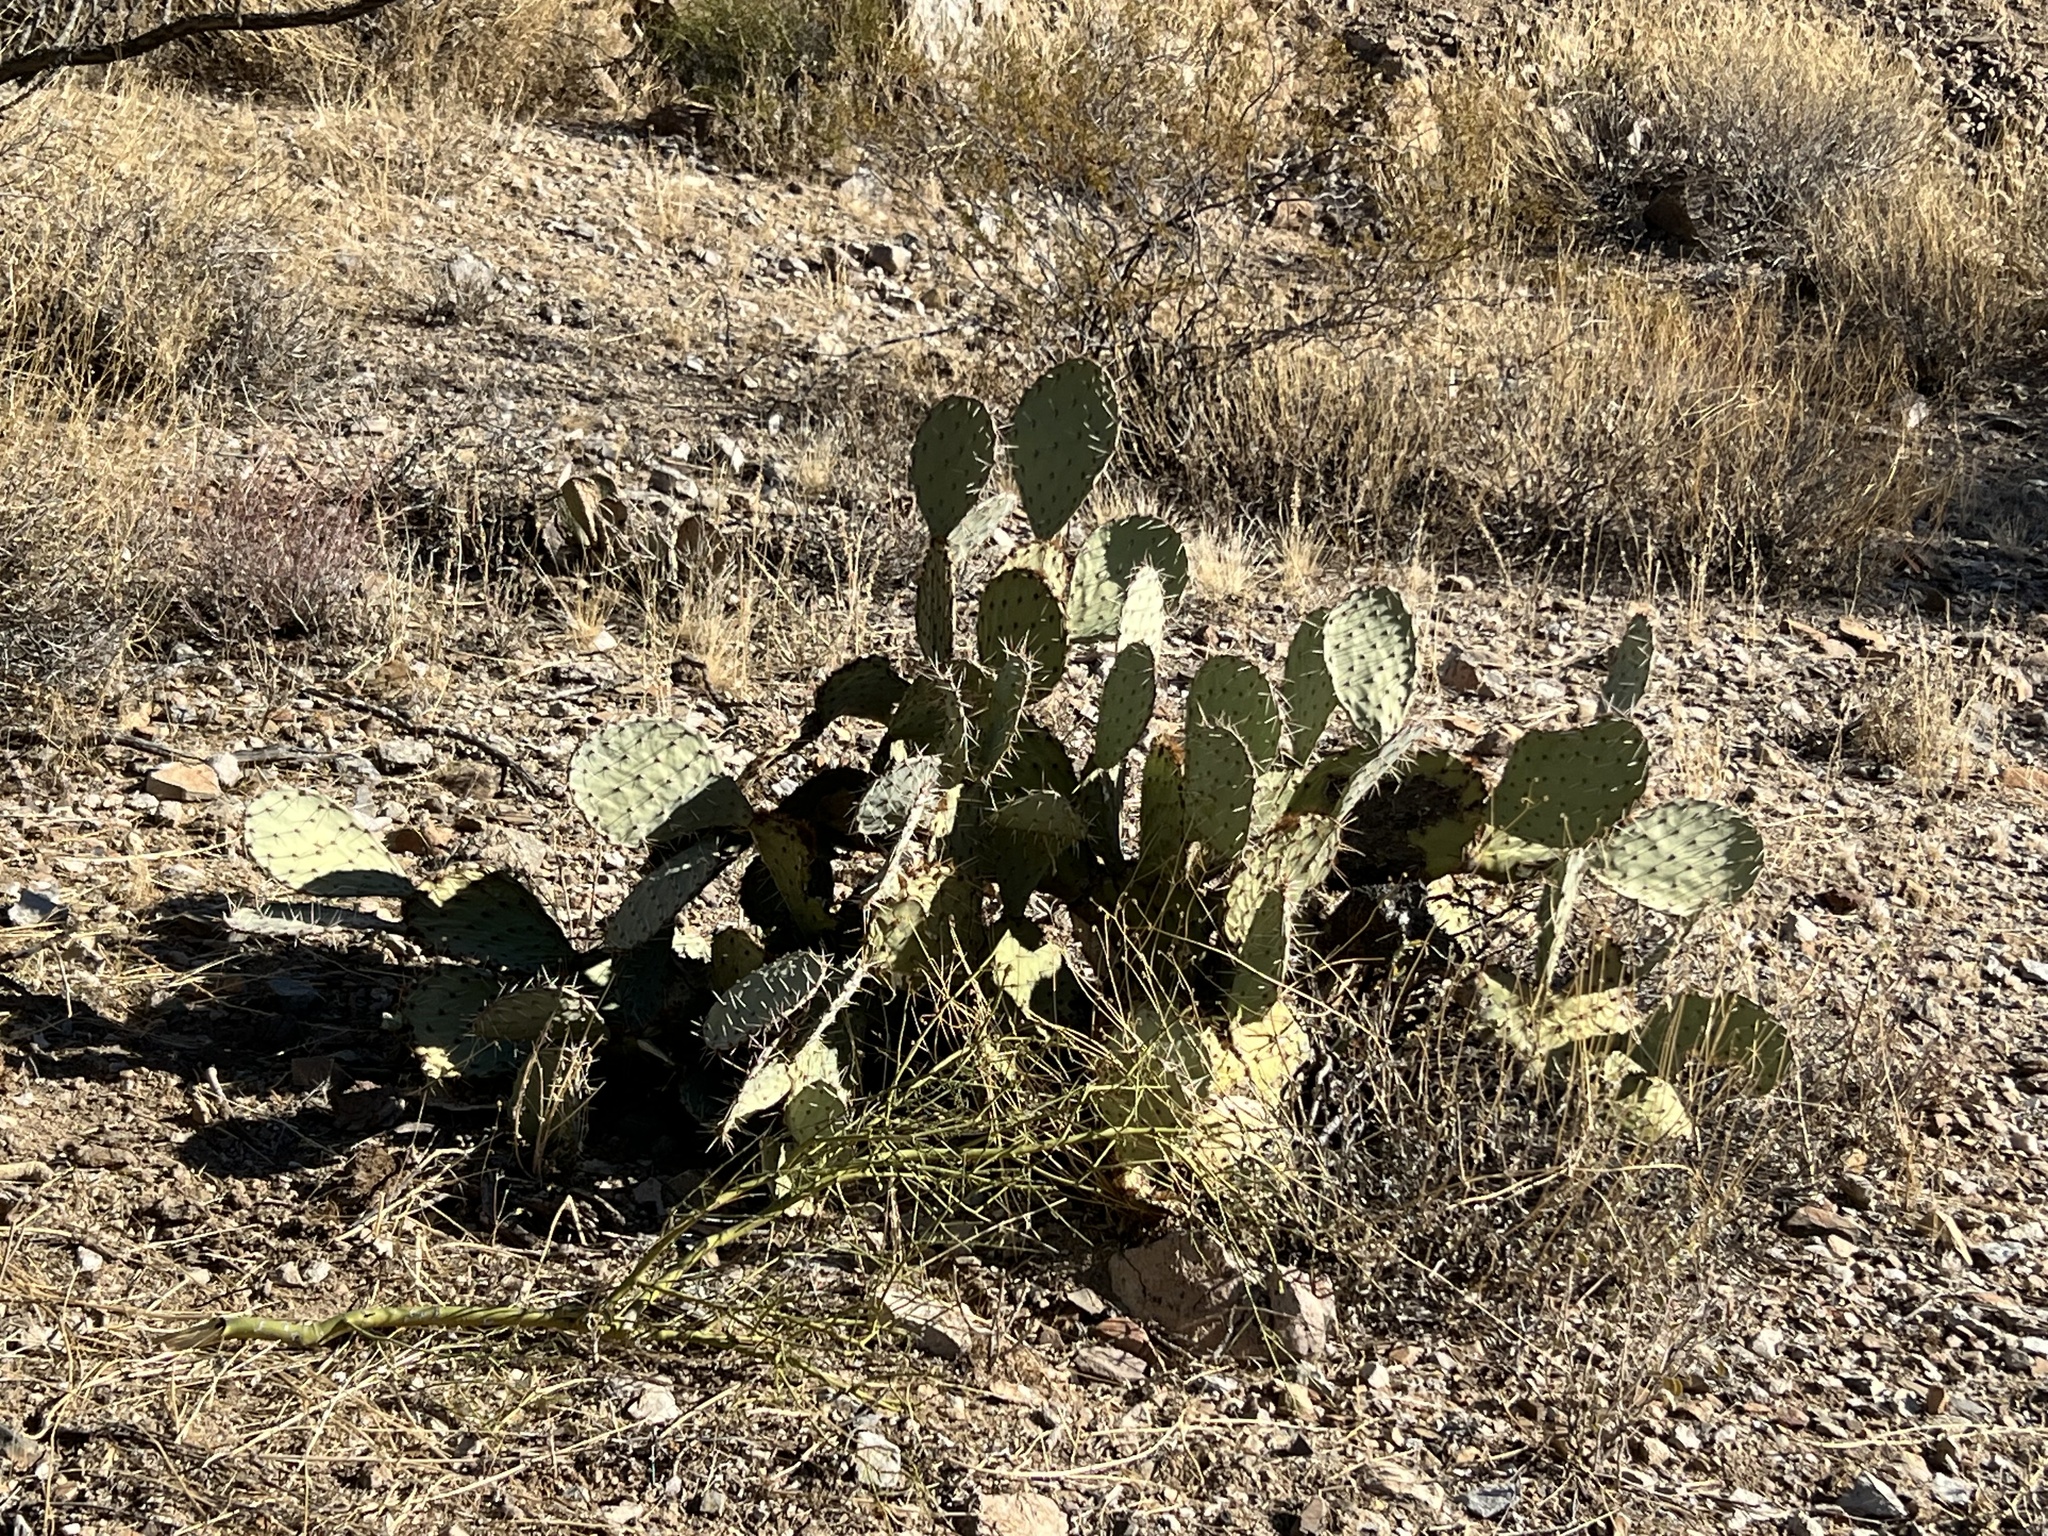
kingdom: Plantae
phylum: Tracheophyta
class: Magnoliopsida
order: Caryophyllales
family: Cactaceae
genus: Opuntia
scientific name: Opuntia engelmannii
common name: Cactus-apple
